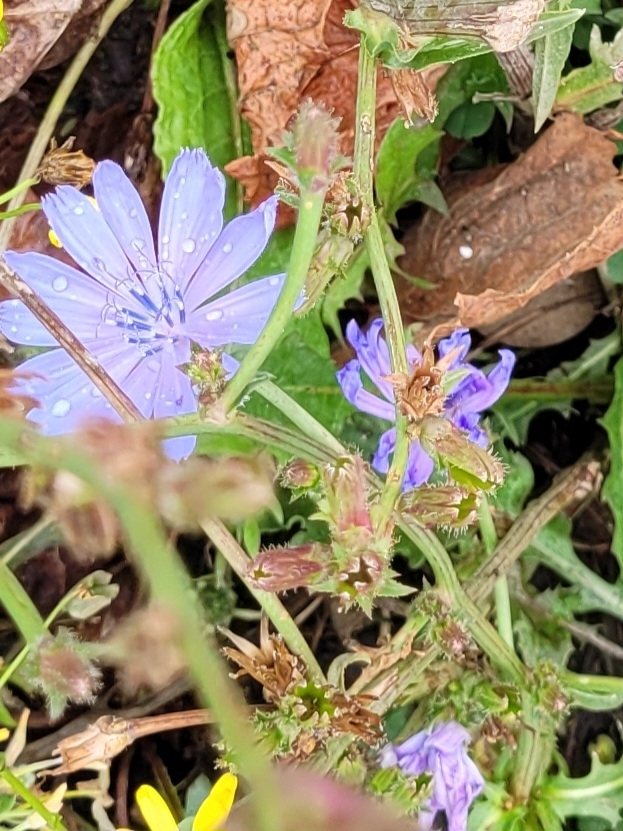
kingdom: Plantae
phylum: Tracheophyta
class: Magnoliopsida
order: Asterales
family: Asteraceae
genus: Cichorium
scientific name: Cichorium intybus
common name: Chicory
